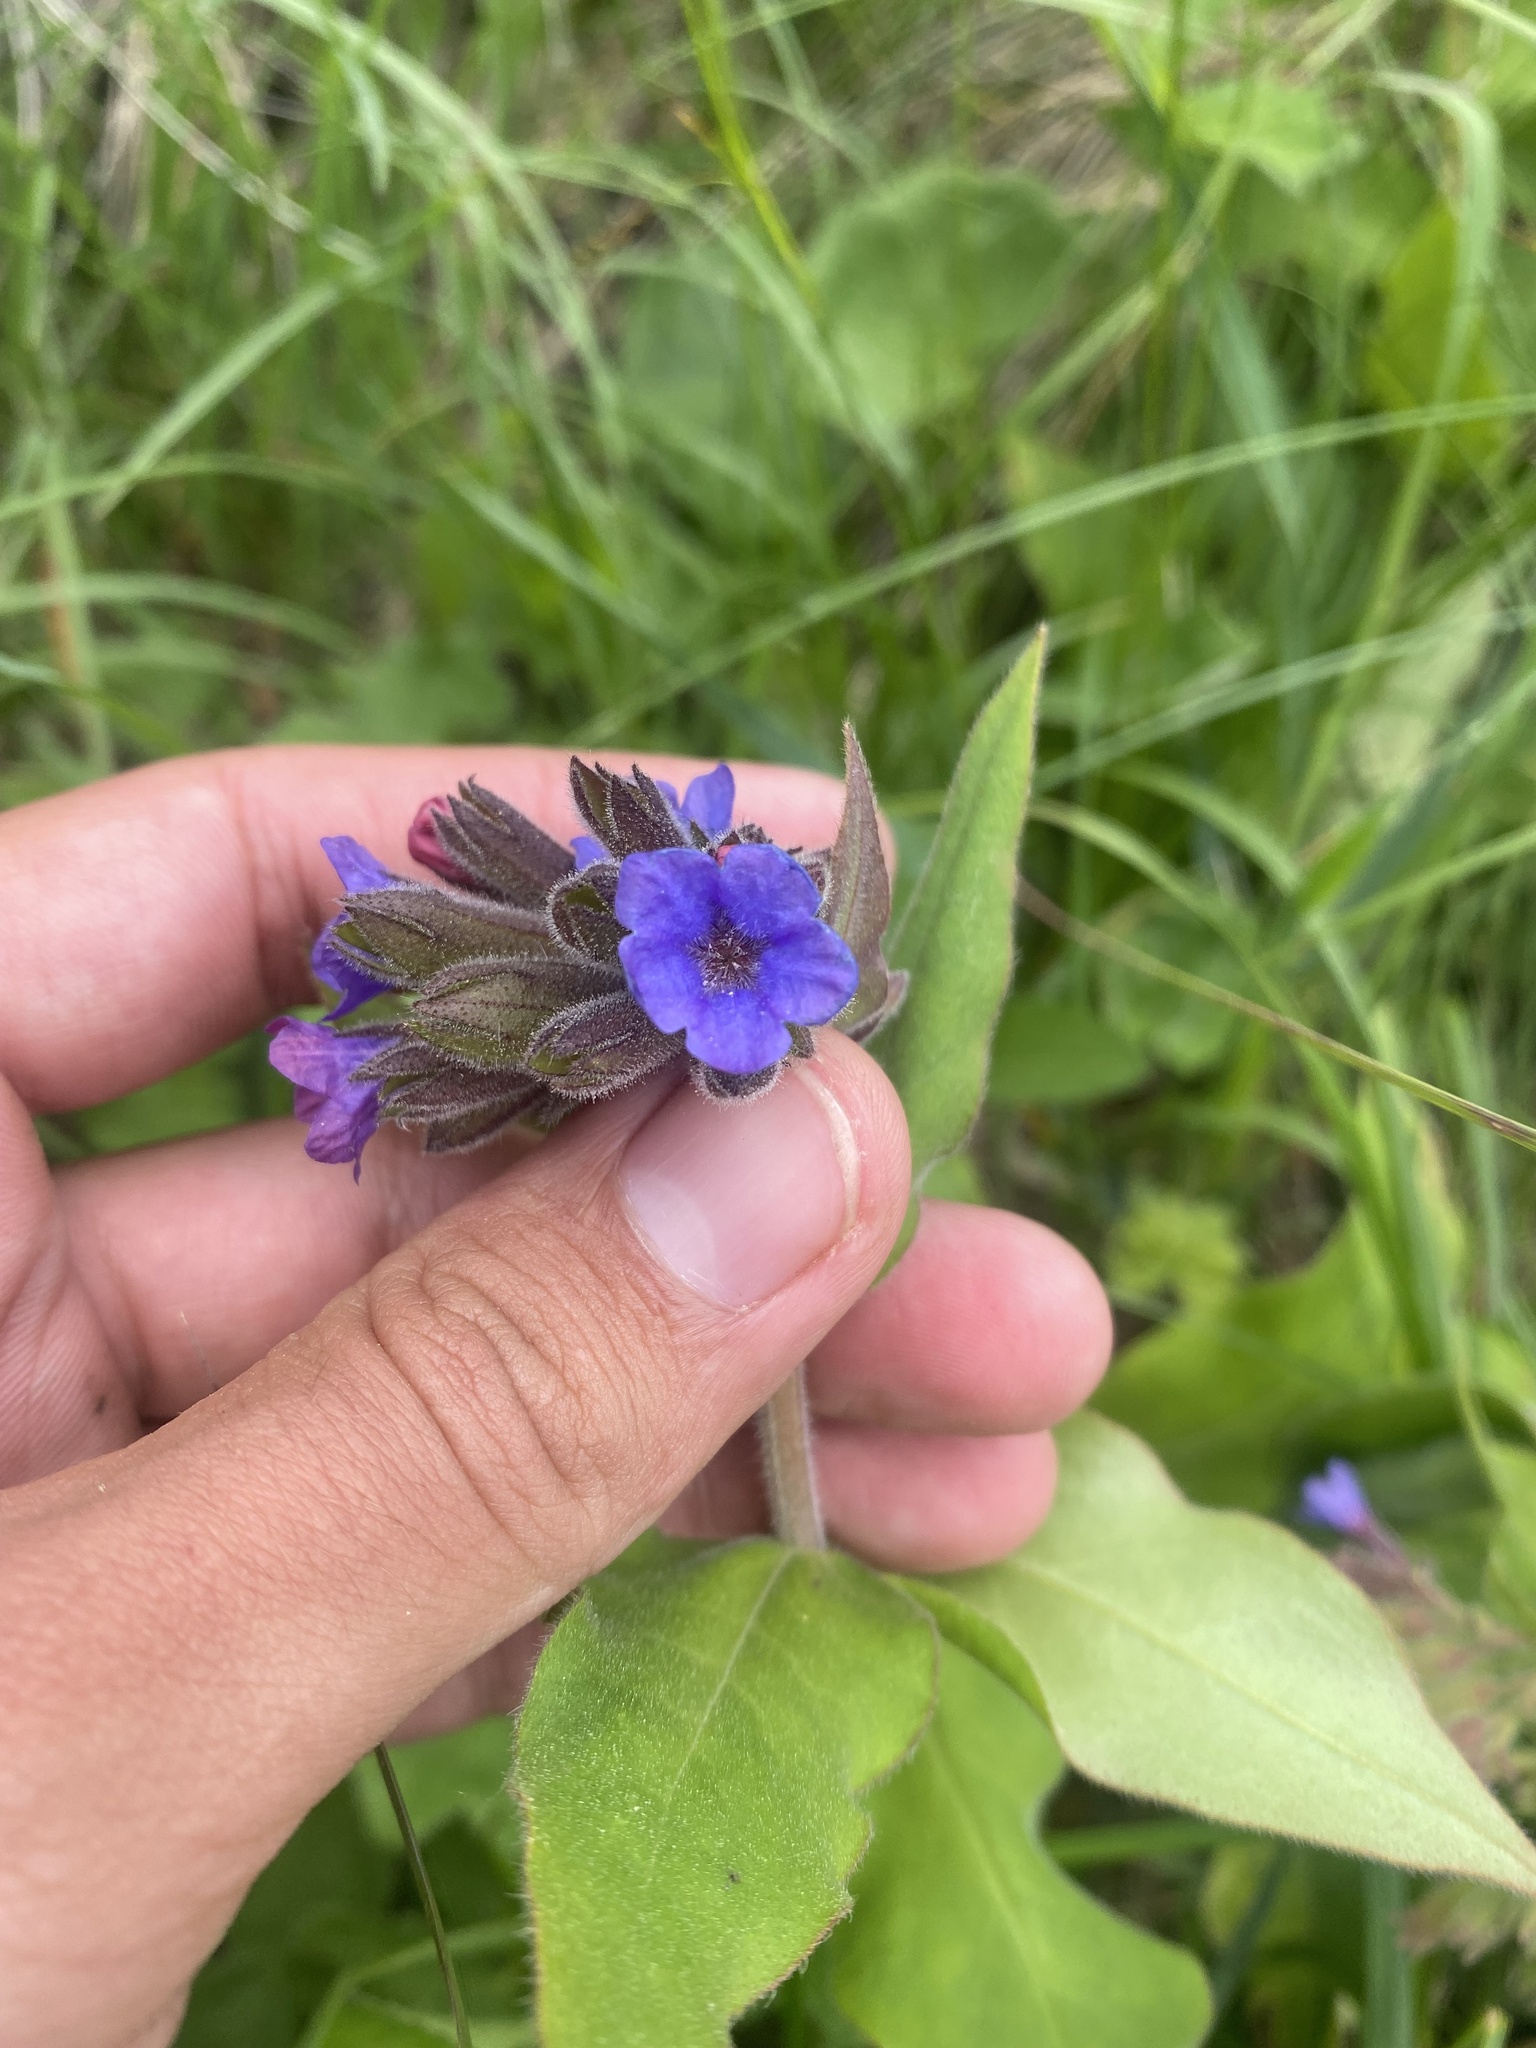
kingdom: Plantae
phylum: Tracheophyta
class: Magnoliopsida
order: Boraginales
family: Boraginaceae
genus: Pulmonaria
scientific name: Pulmonaria mollis
